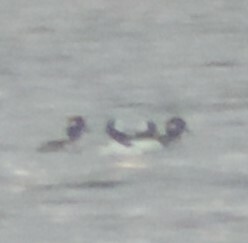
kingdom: Animalia
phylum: Chordata
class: Aves
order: Anseriformes
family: Anatidae
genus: Bucephala
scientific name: Bucephala albeola
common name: Bufflehead
